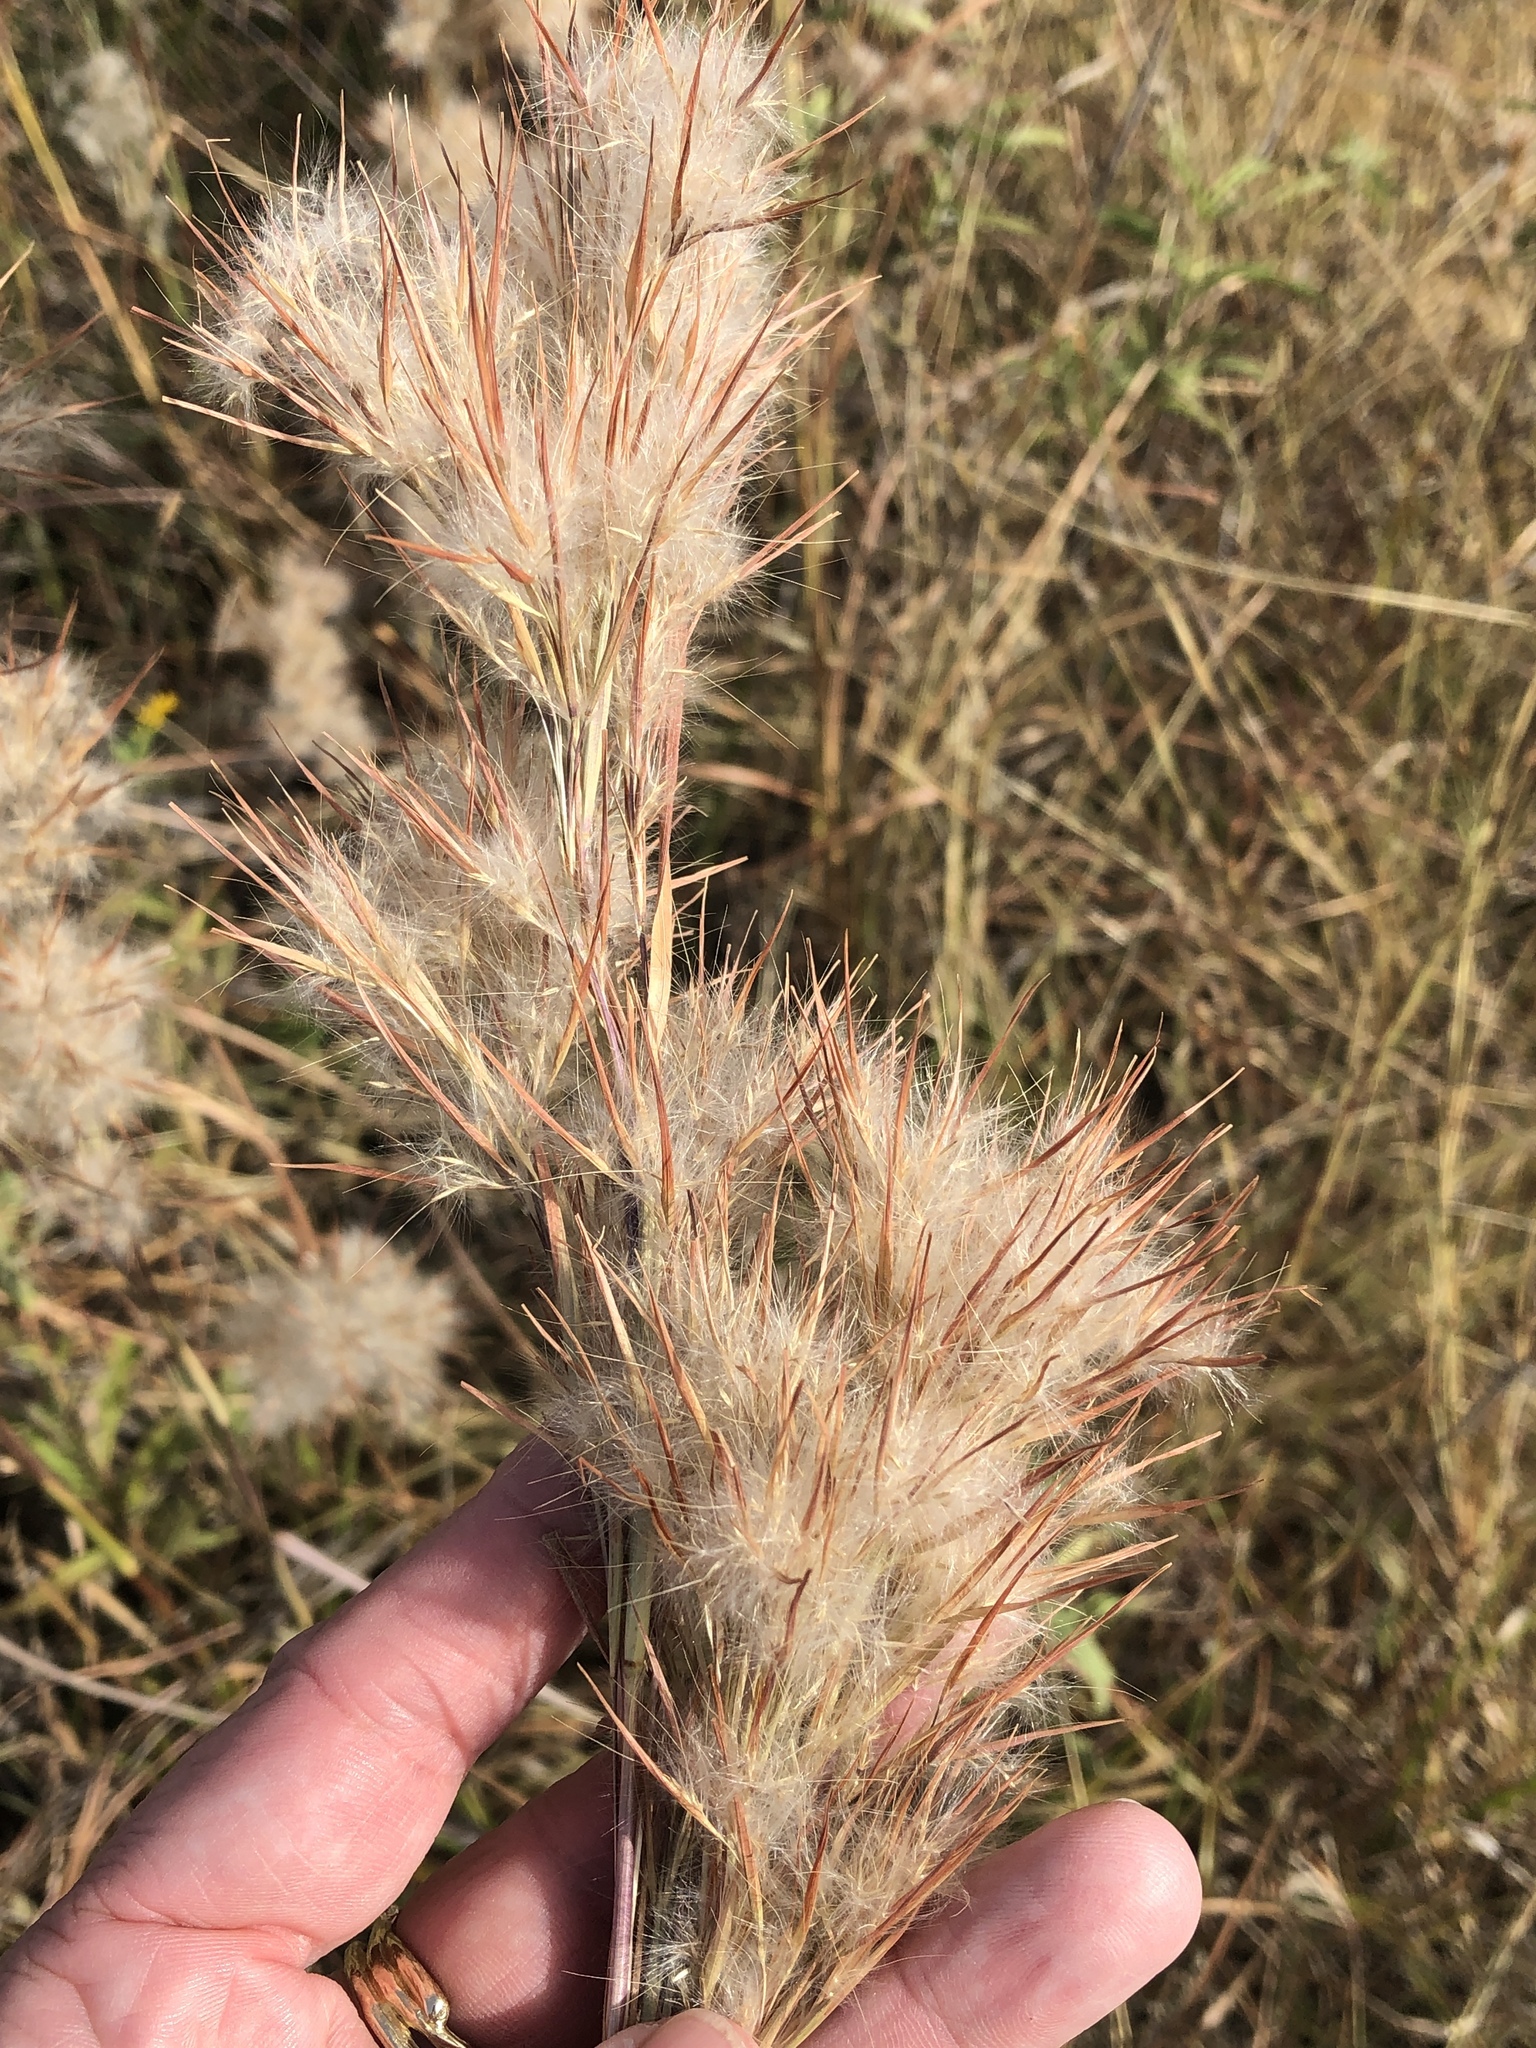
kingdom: Plantae
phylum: Tracheophyta
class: Liliopsida
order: Poales
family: Poaceae
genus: Andropogon
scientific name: Andropogon tenuispatheus
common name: Bushy bluestem
